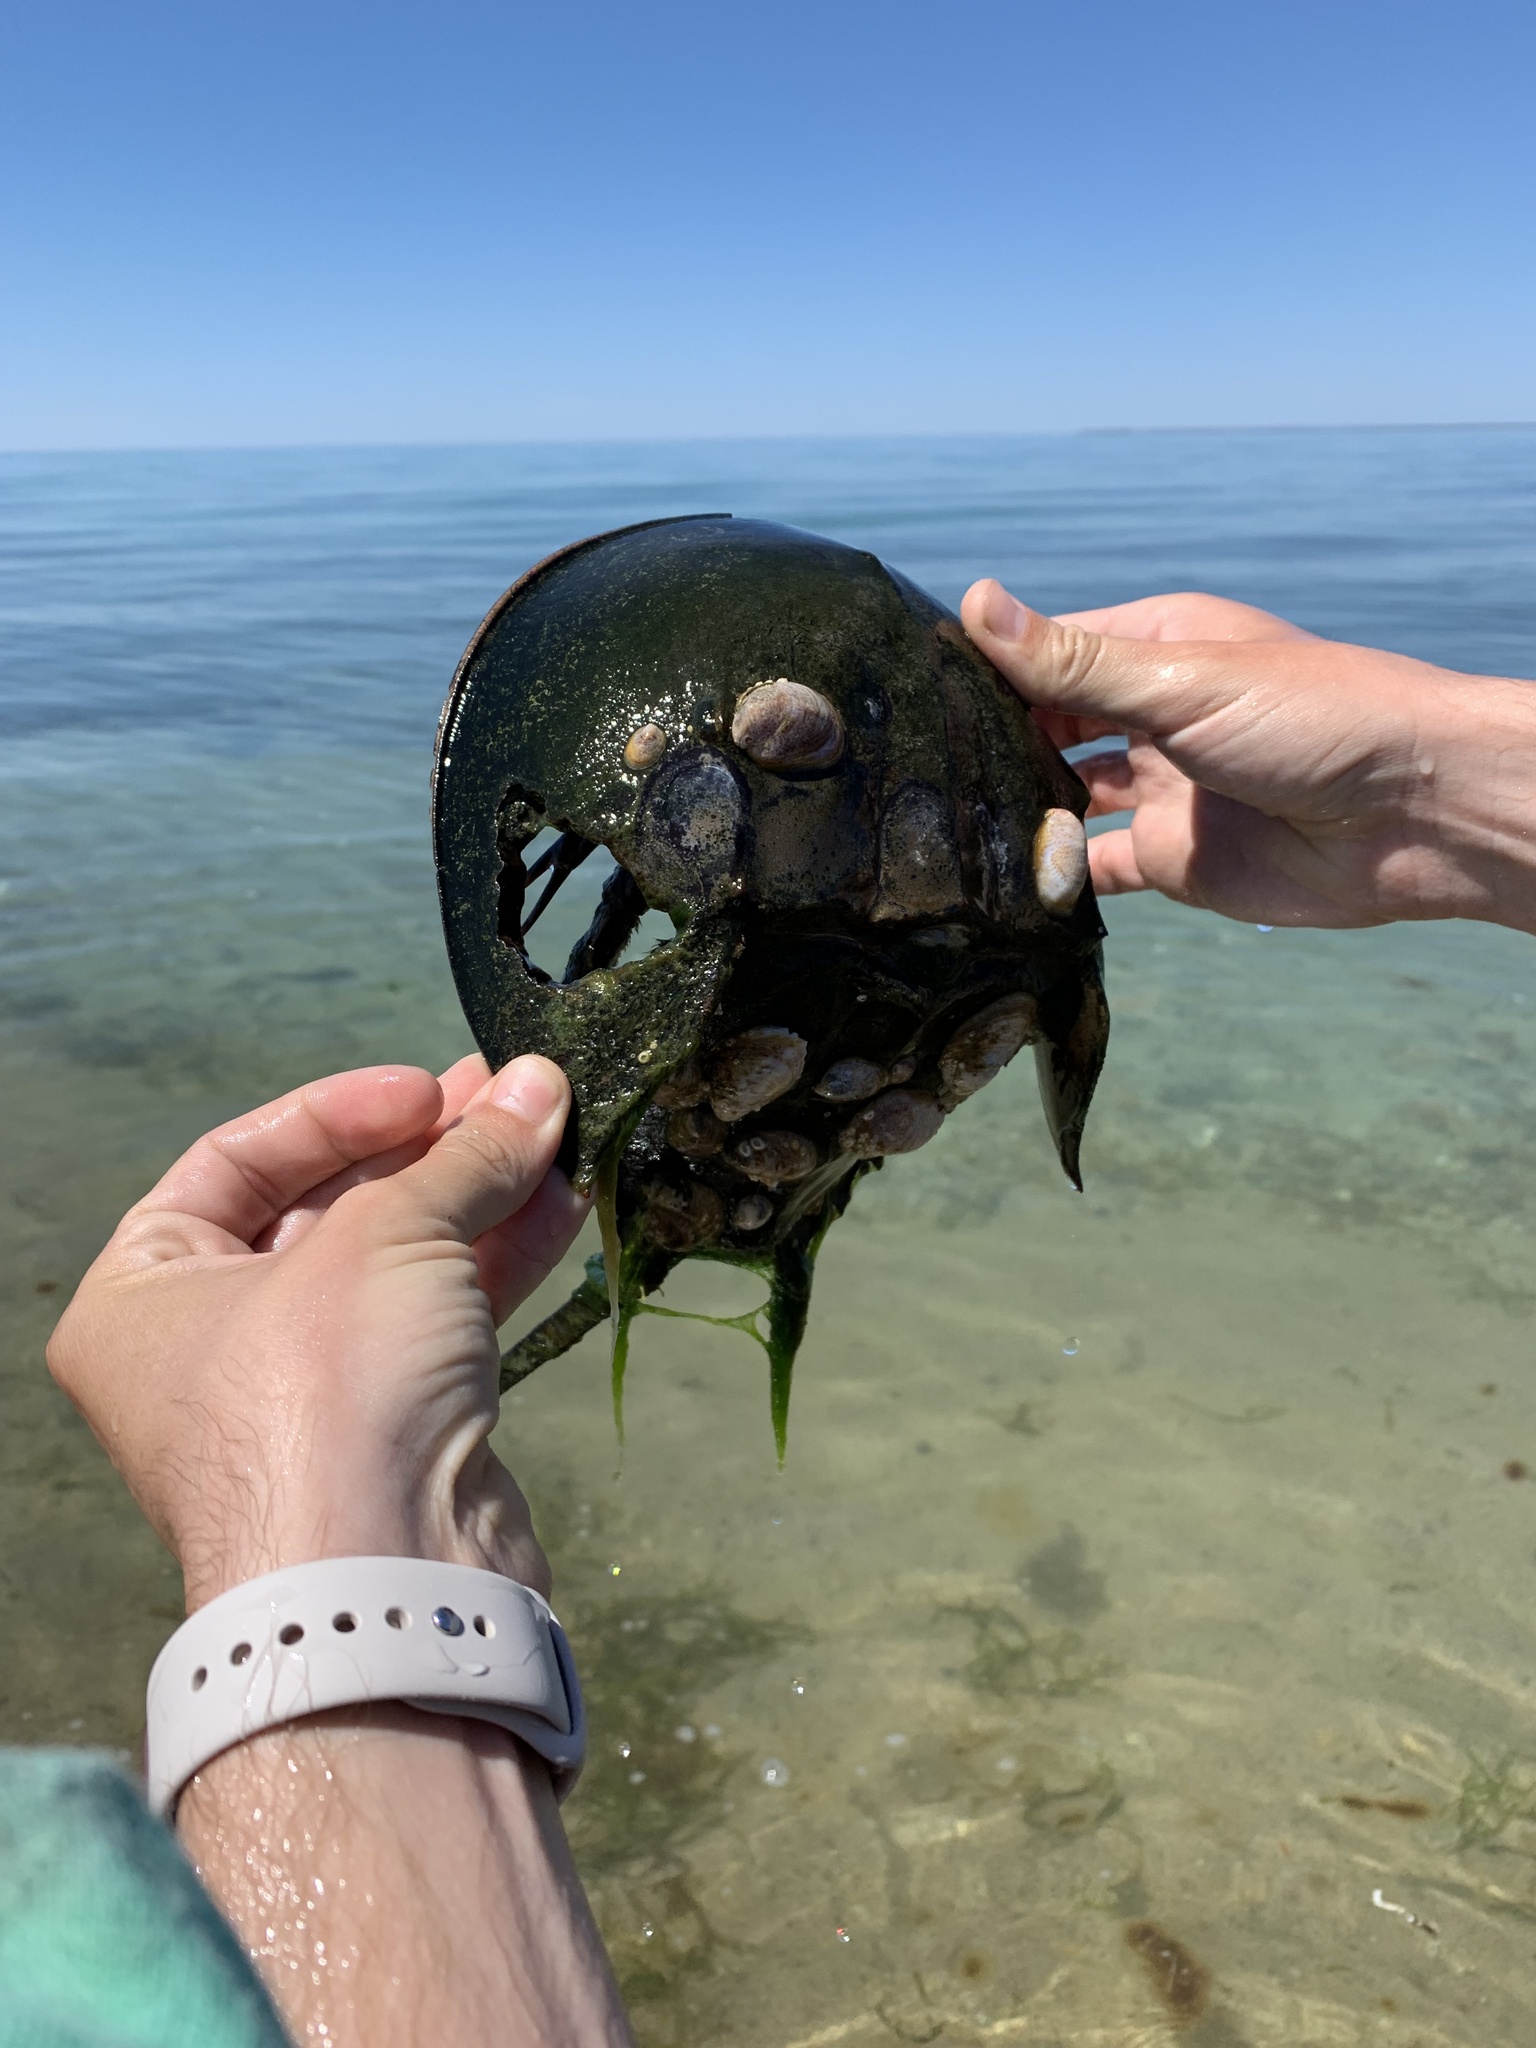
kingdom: Animalia
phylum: Arthropoda
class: Merostomata
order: Xiphosurida
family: Limulidae
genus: Limulus
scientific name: Limulus polyphemus
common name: Horseshoe crab
